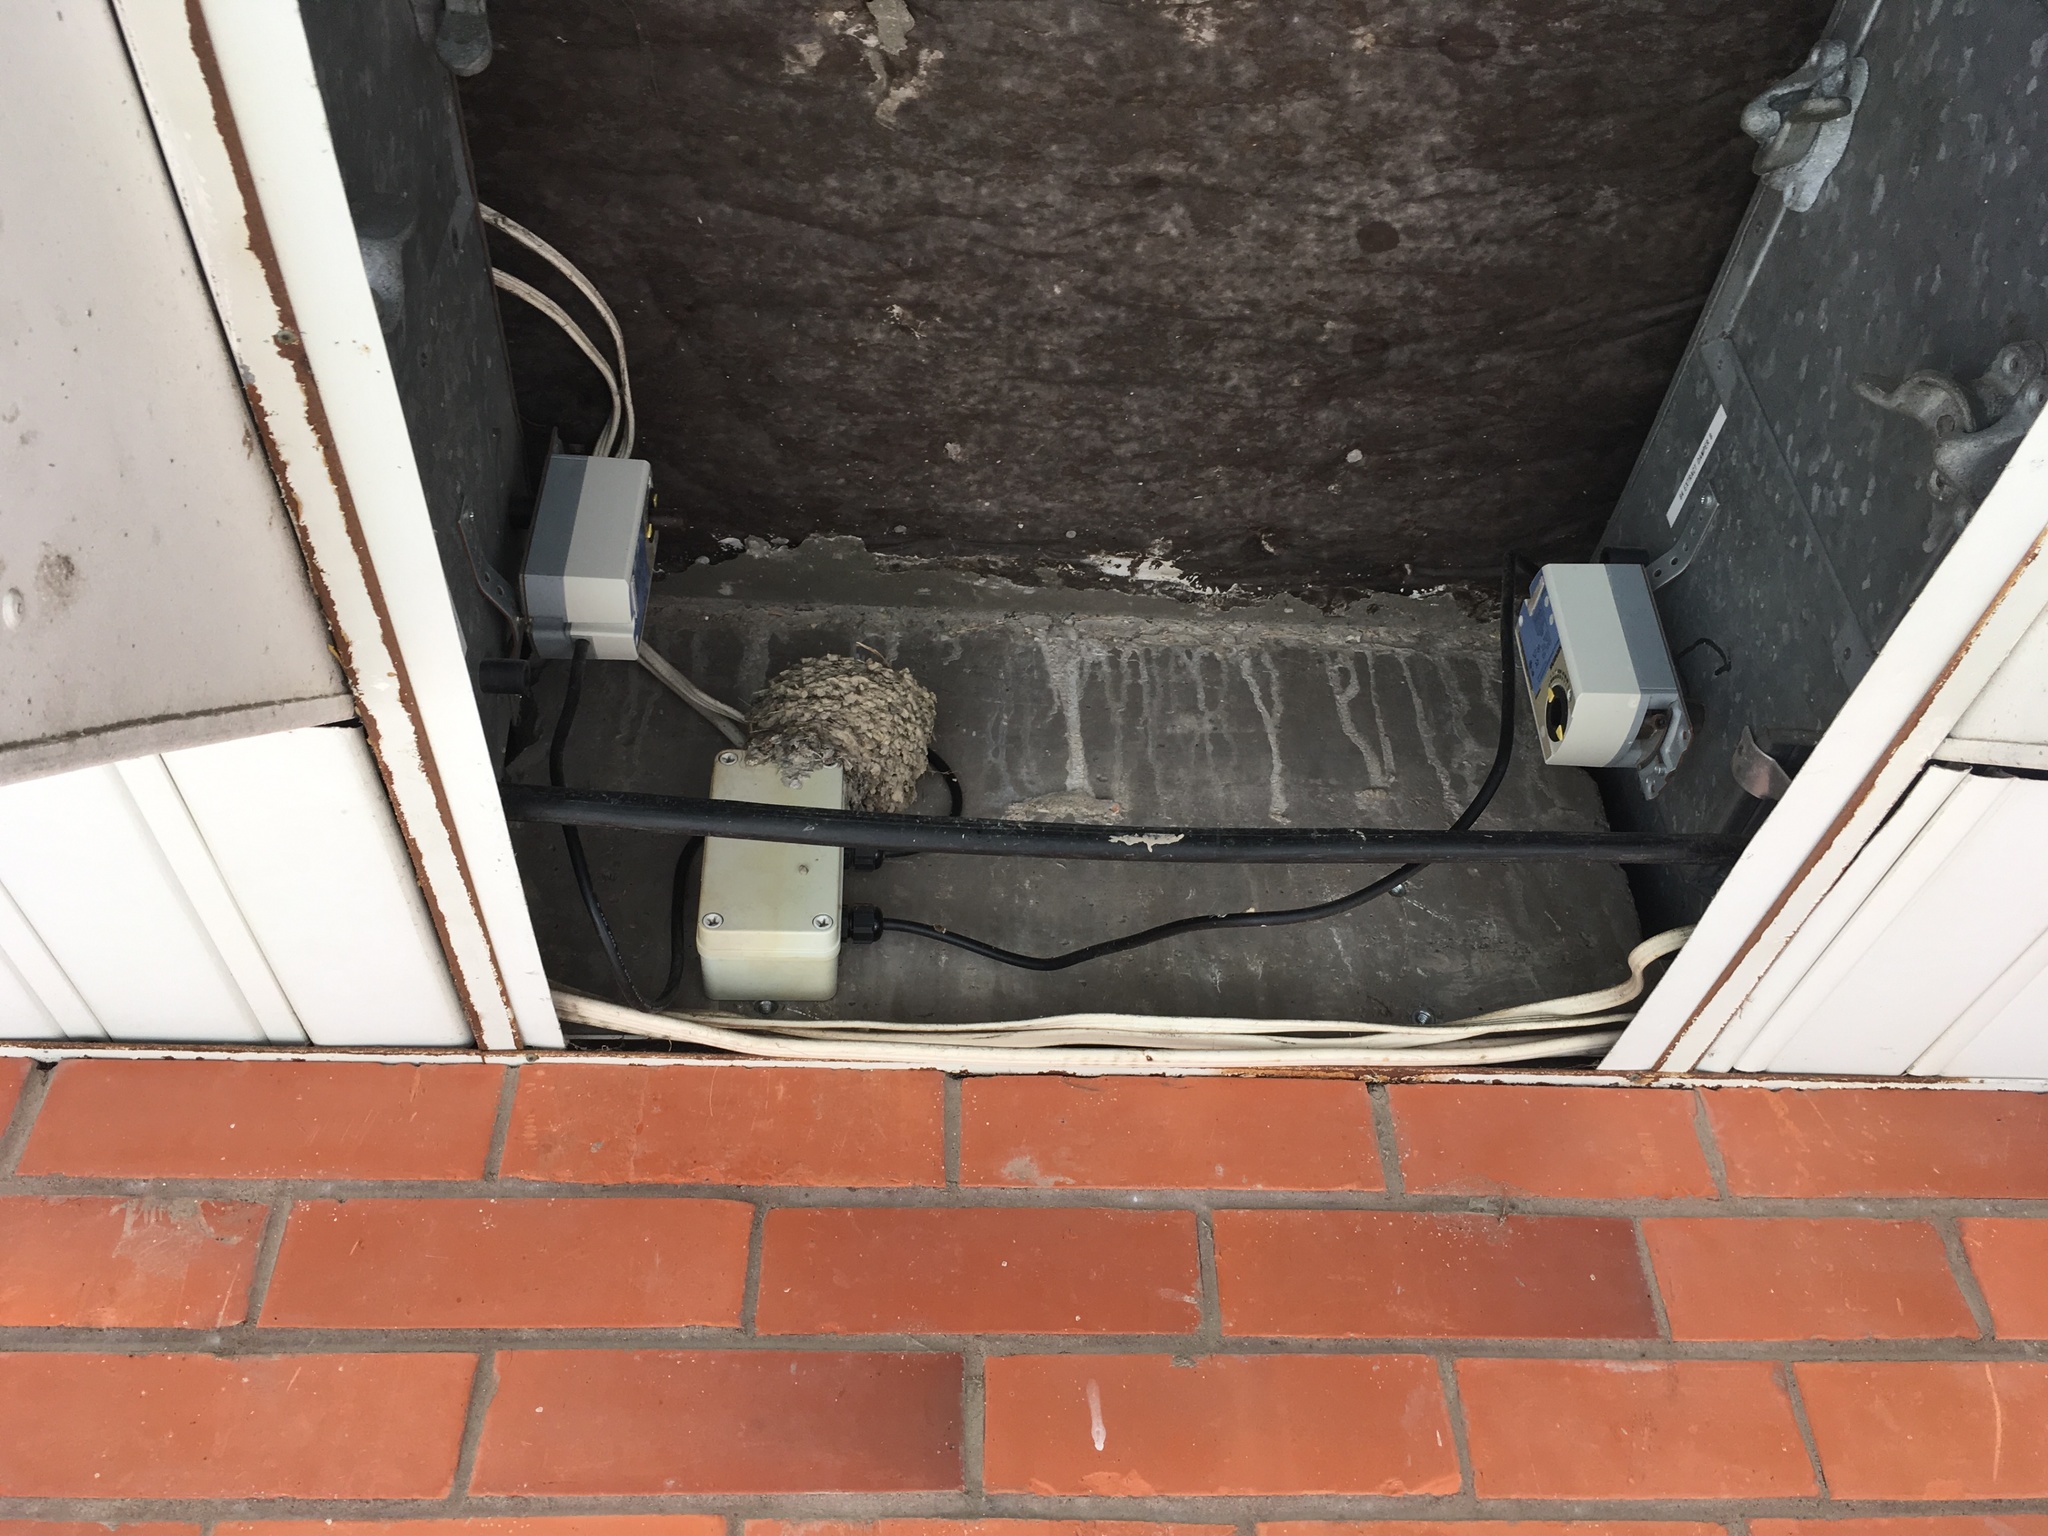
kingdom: Animalia
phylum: Chordata
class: Aves
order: Passeriformes
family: Hirundinidae
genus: Hirundo
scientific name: Hirundo neoxena
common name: Welcome swallow
